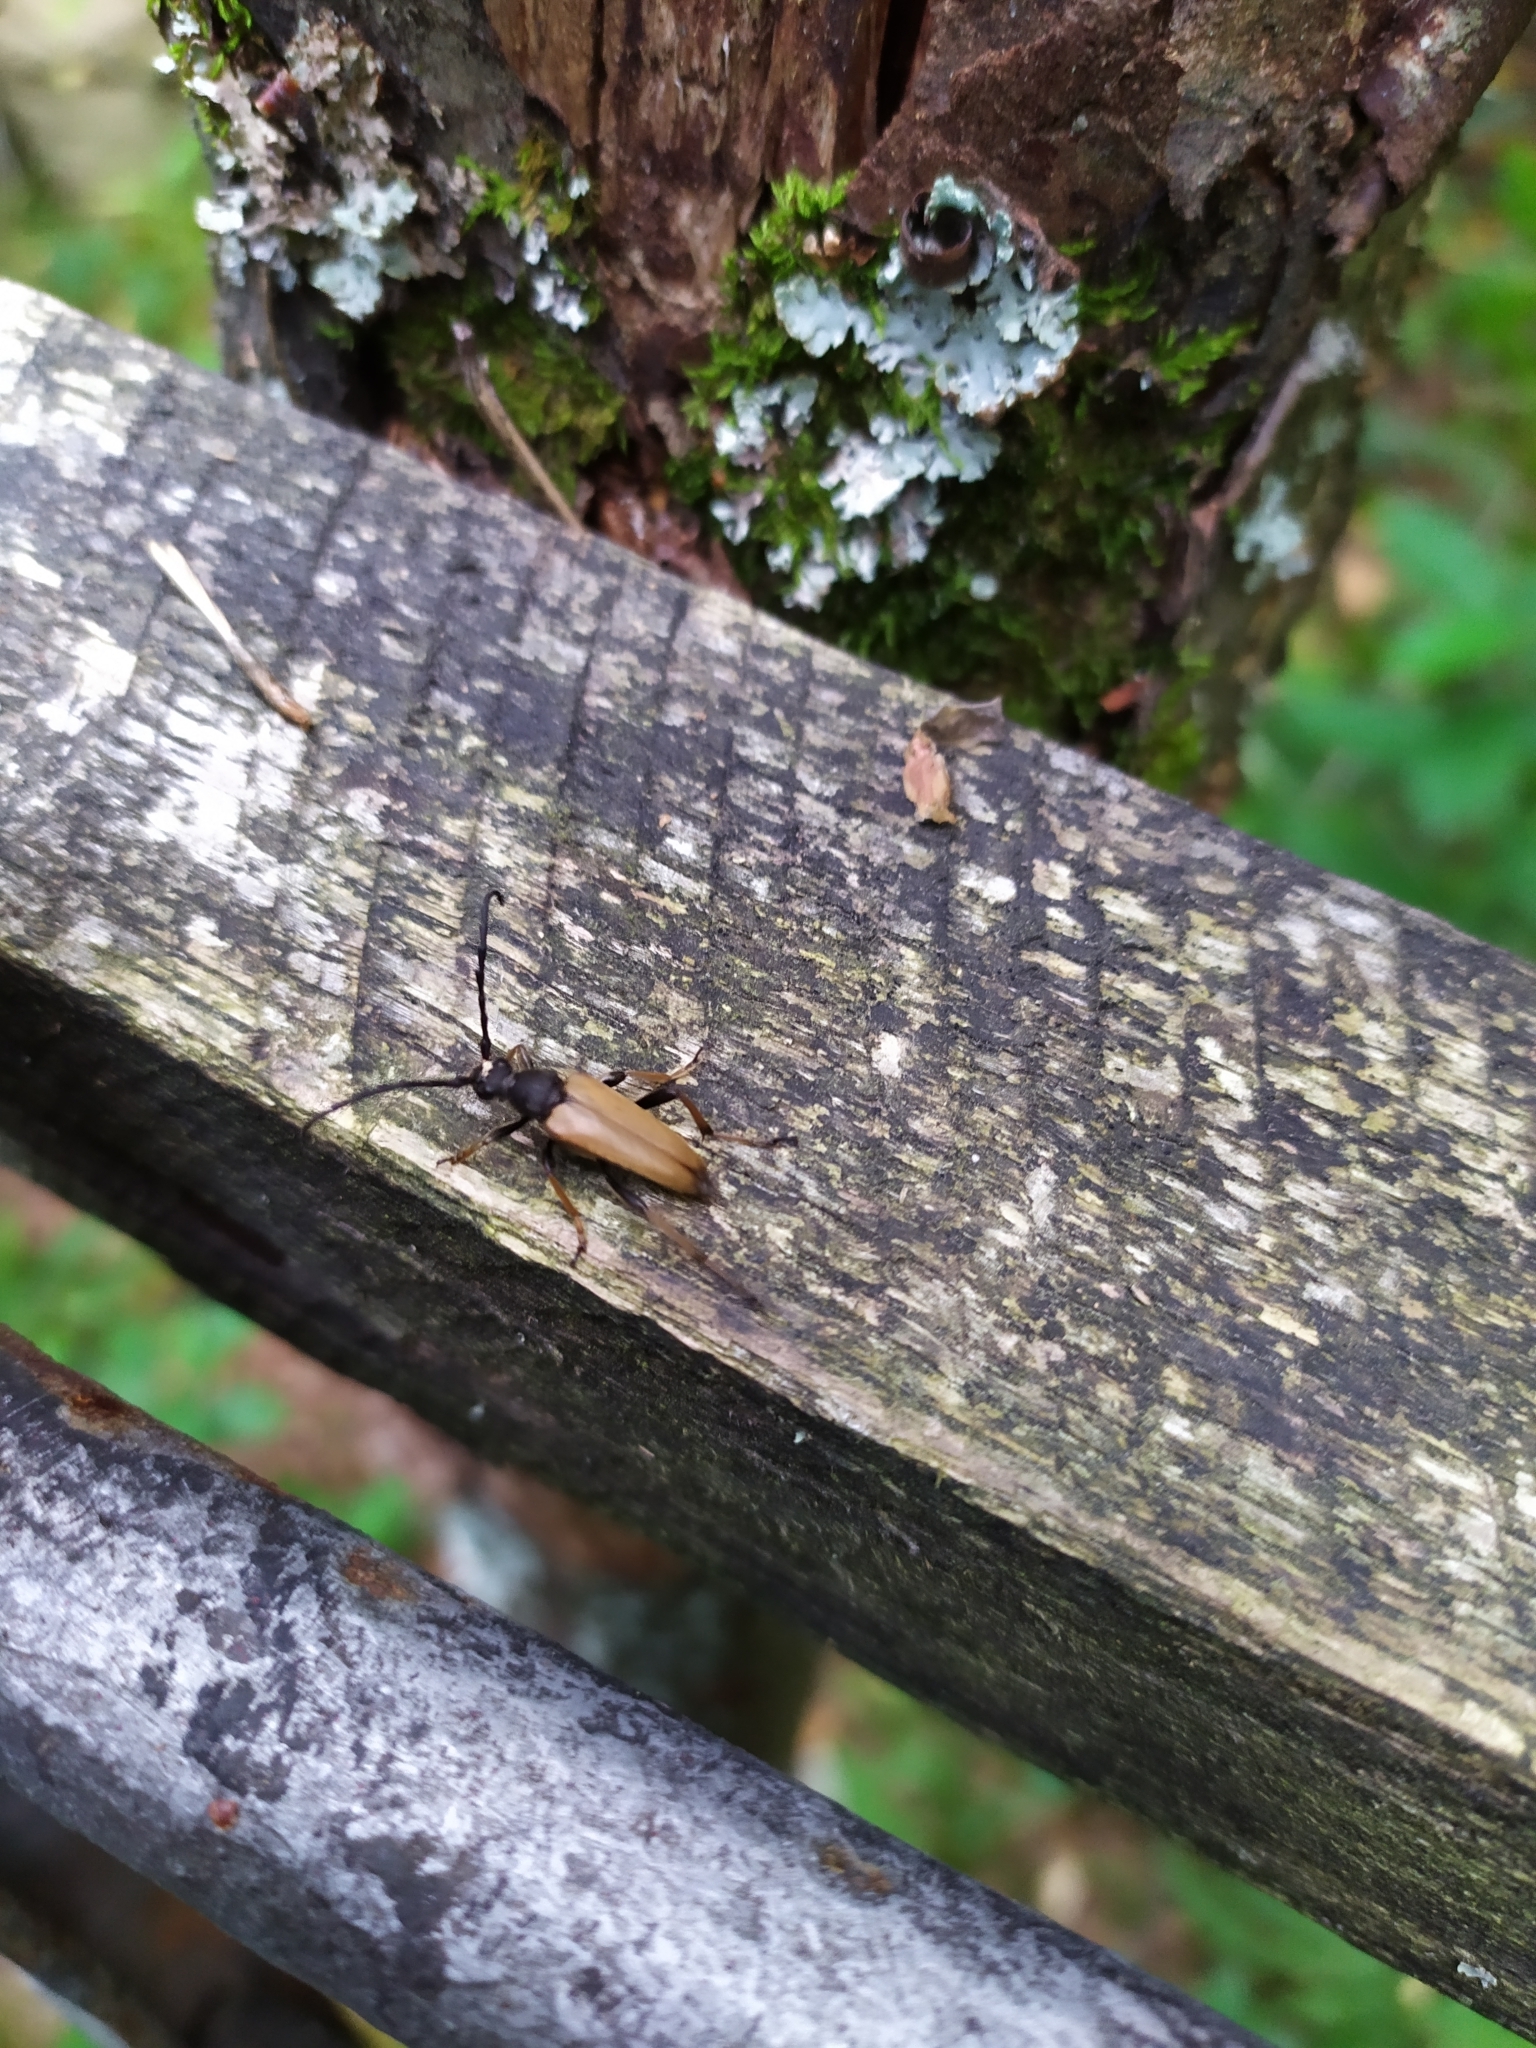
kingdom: Animalia
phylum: Arthropoda
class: Insecta
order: Coleoptera
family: Cerambycidae
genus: Stictoleptura
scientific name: Stictoleptura rubra
